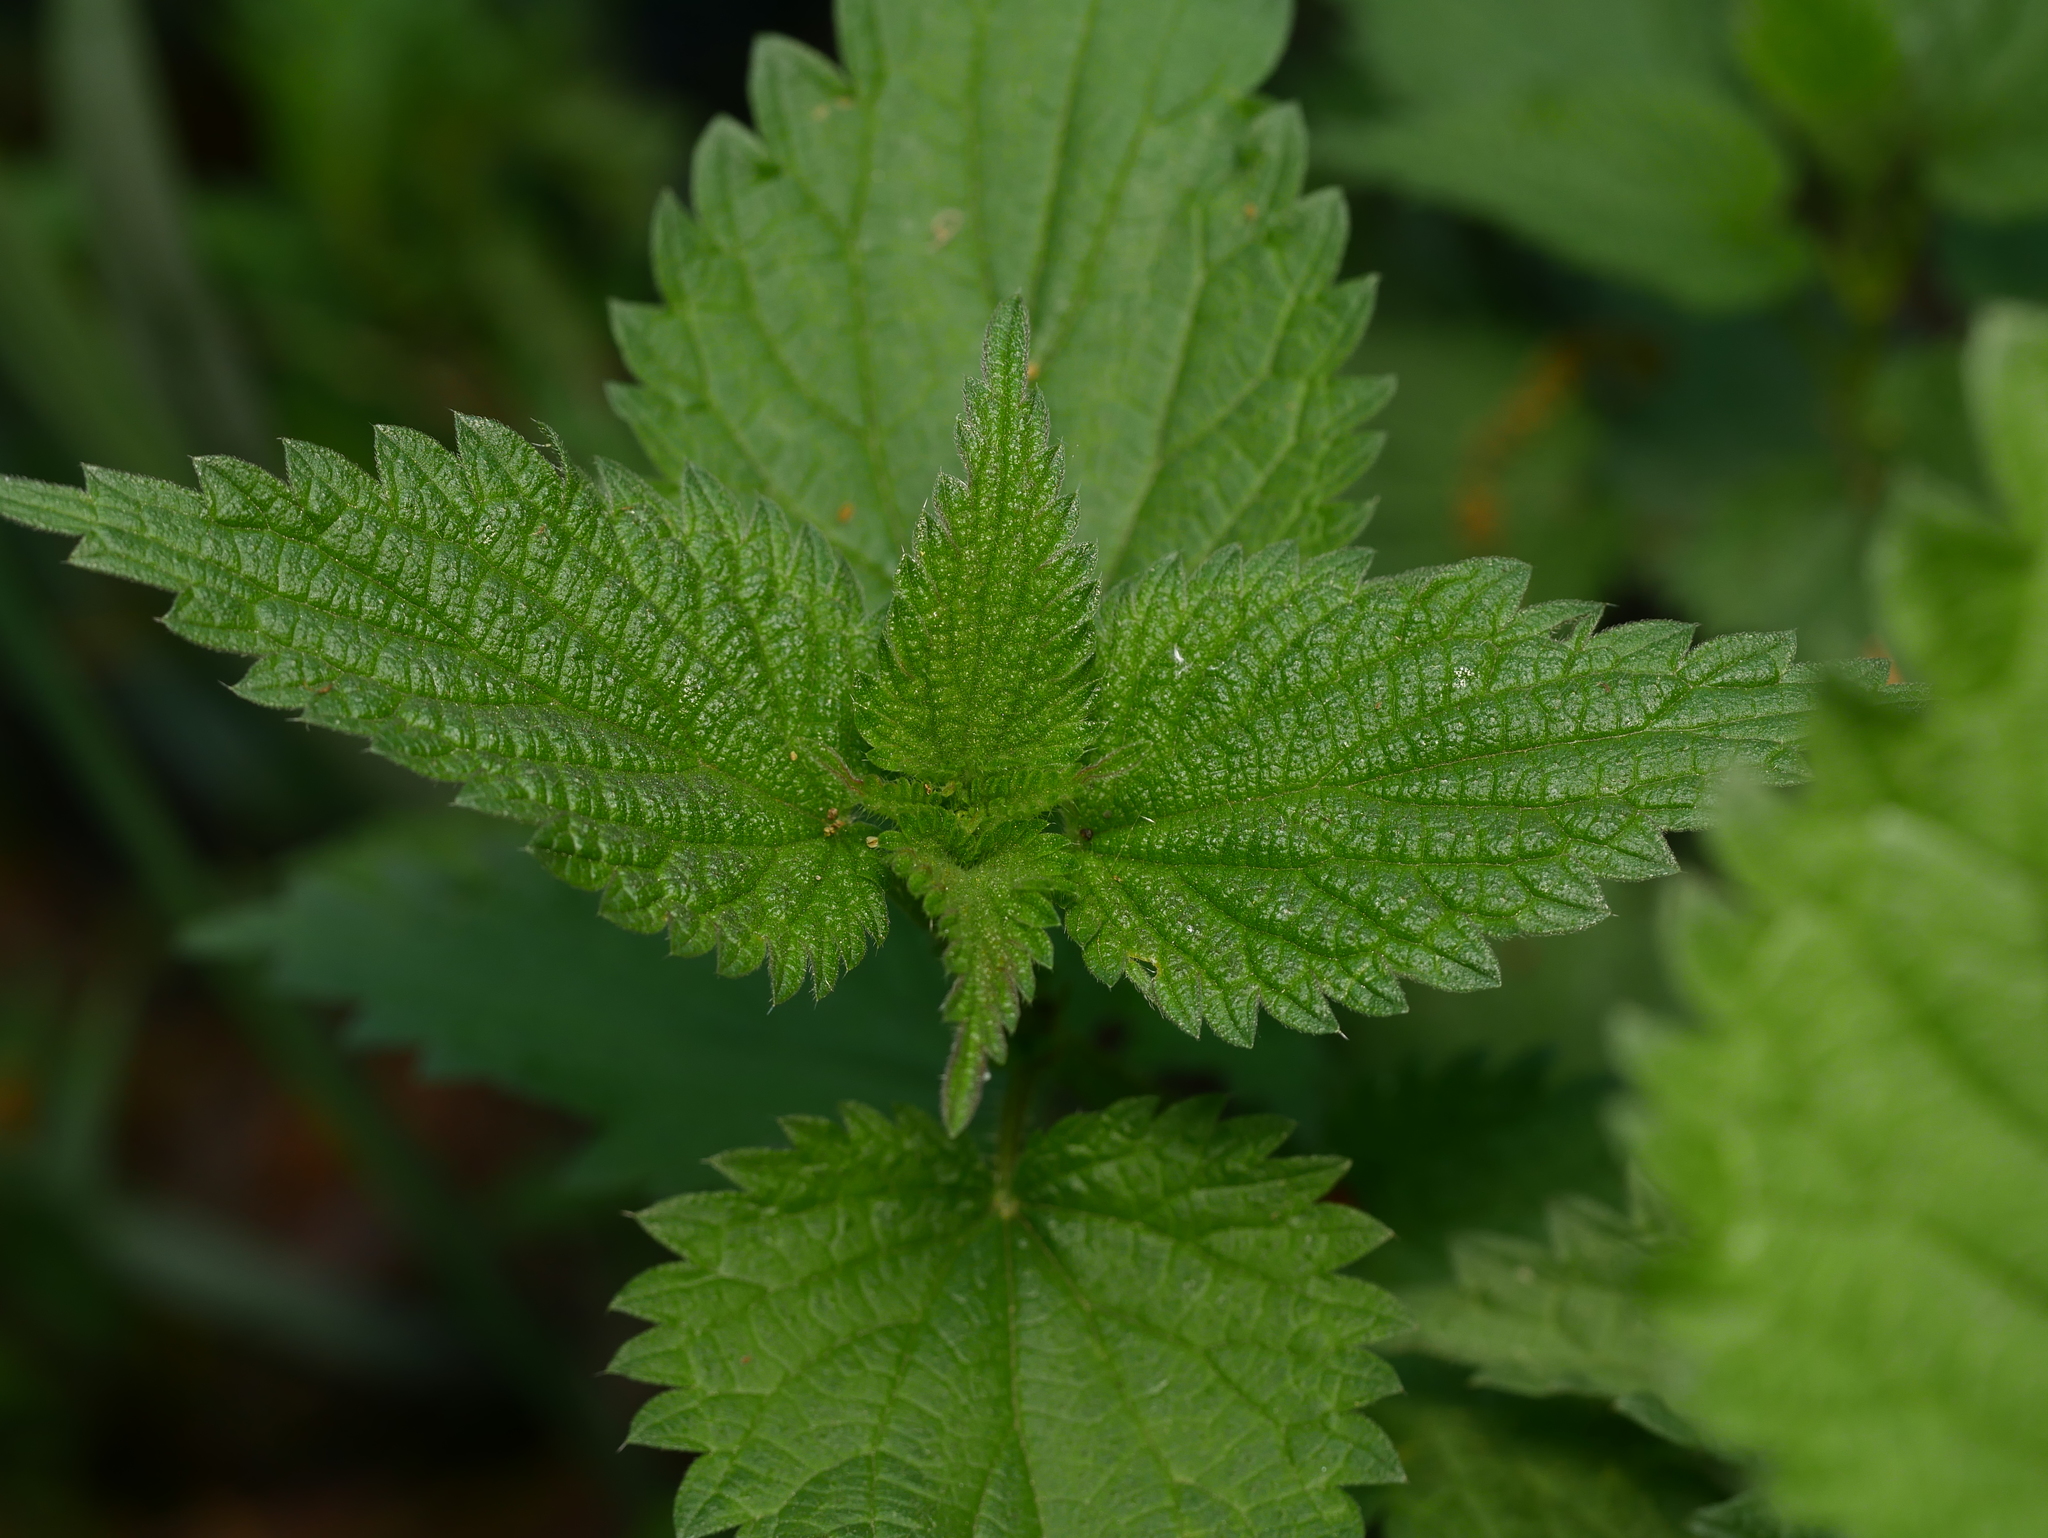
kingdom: Plantae
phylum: Tracheophyta
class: Magnoliopsida
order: Rosales
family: Urticaceae
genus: Urtica
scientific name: Urtica dioica
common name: Common nettle
